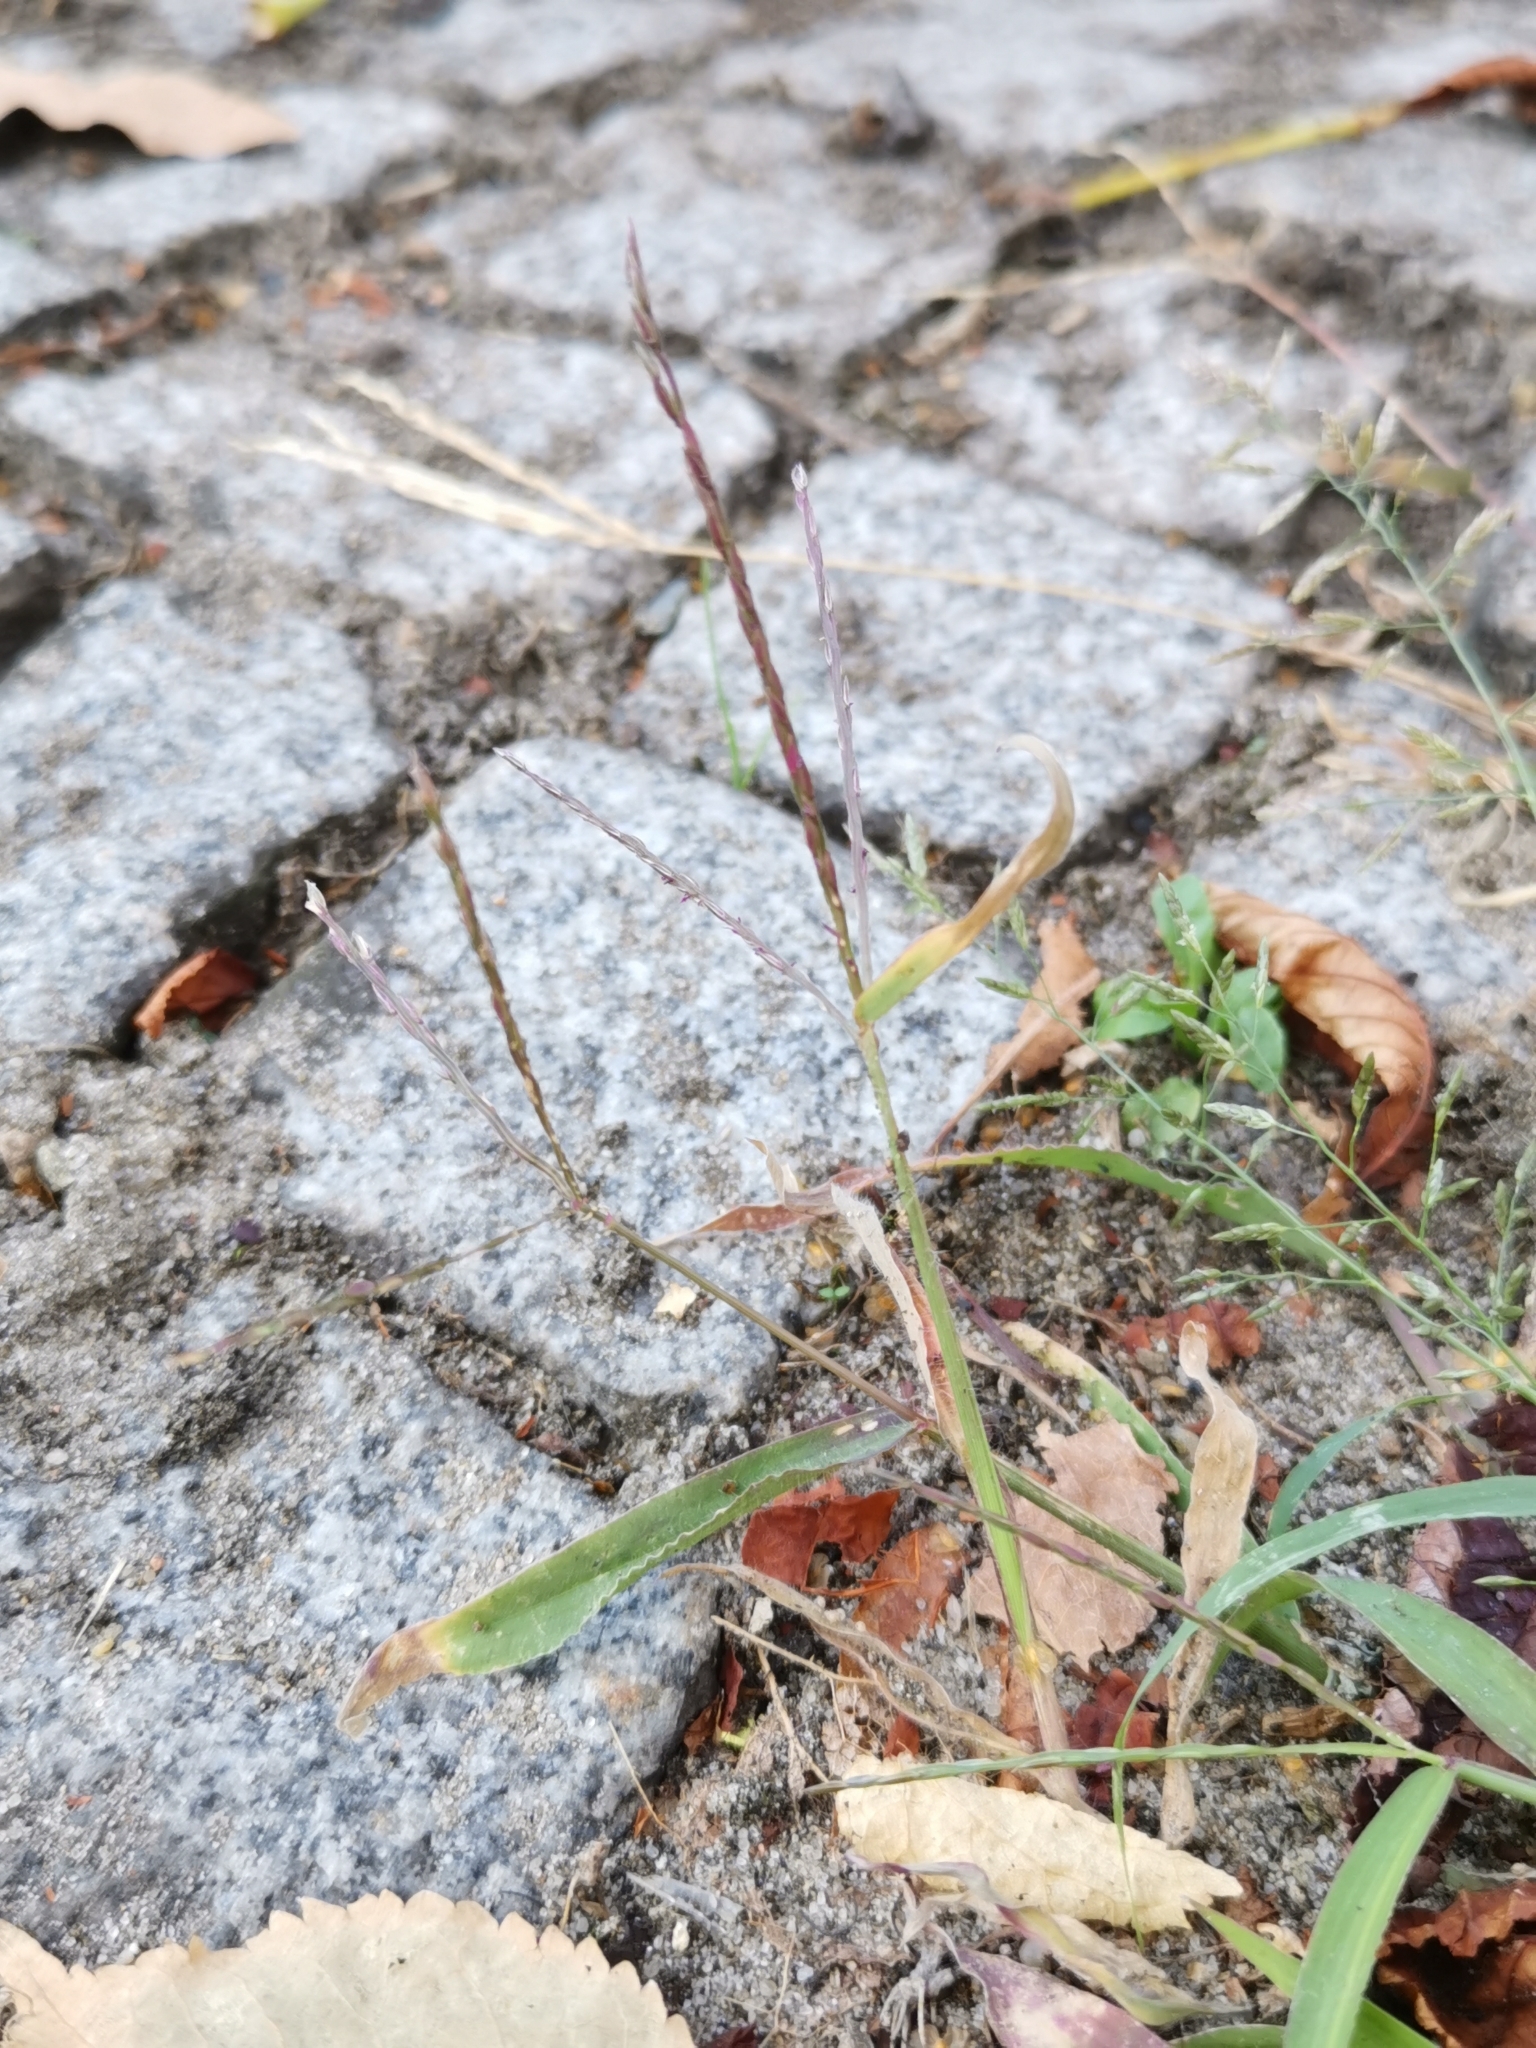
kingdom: Plantae
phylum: Tracheophyta
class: Liliopsida
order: Poales
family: Poaceae
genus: Digitaria
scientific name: Digitaria sanguinalis
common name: Hairy crabgrass
